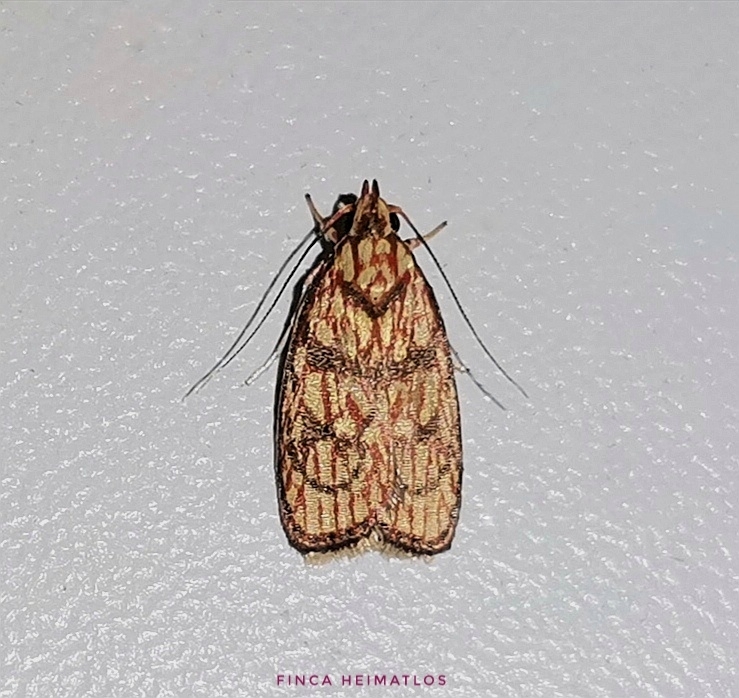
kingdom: Animalia
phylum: Arthropoda
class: Insecta
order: Lepidoptera
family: Peleopodidae
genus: Machimia
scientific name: Machimia
